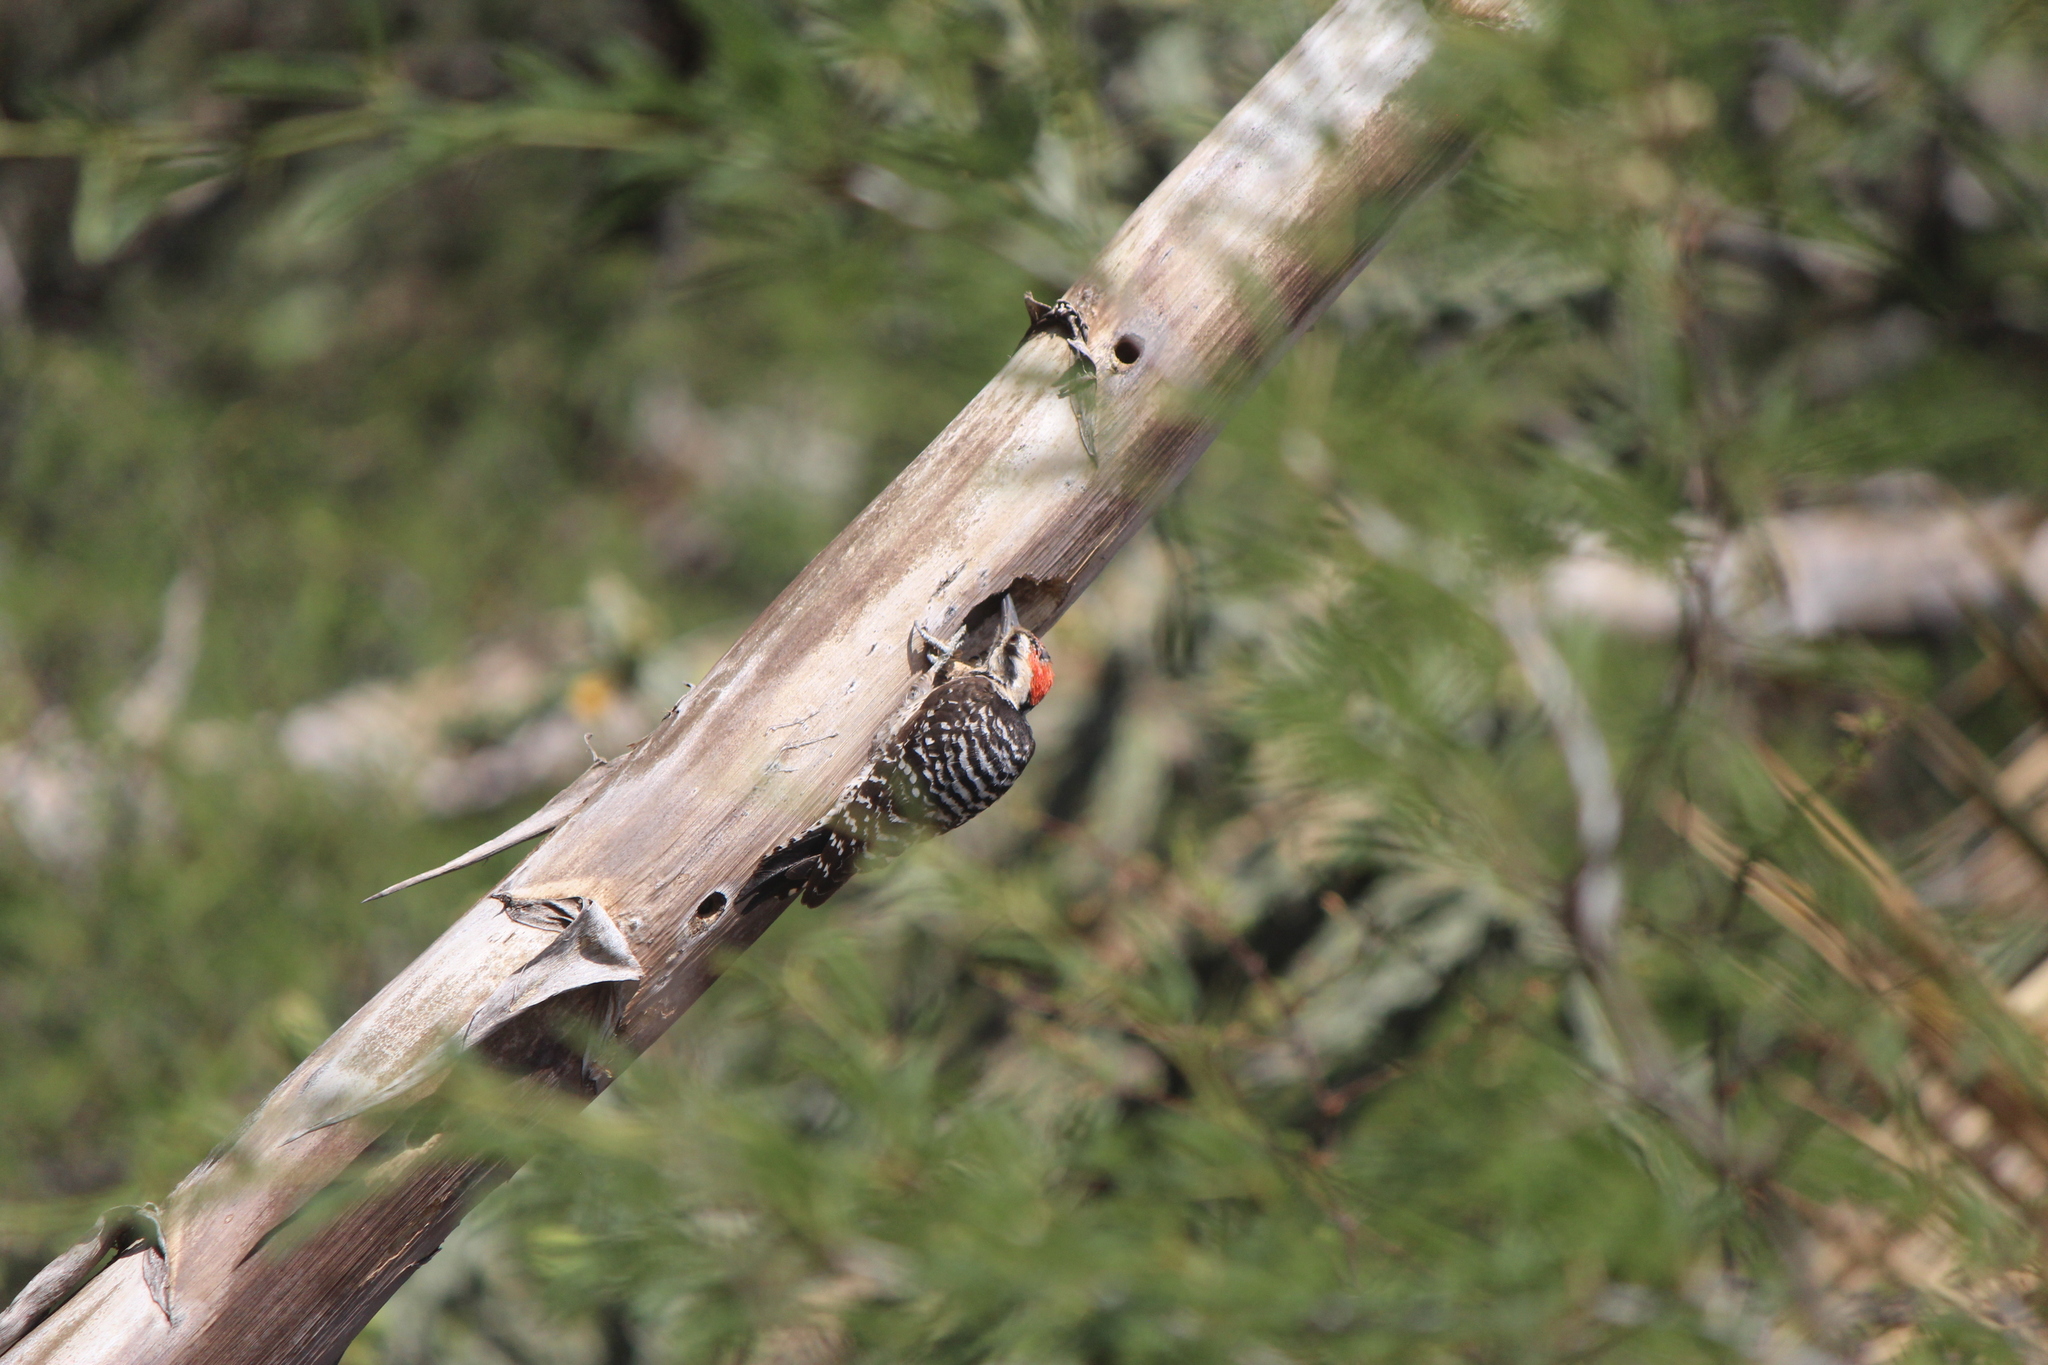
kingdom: Animalia
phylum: Chordata
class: Aves
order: Piciformes
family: Picidae
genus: Dryobates
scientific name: Dryobates scalaris
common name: Ladder-backed woodpecker
